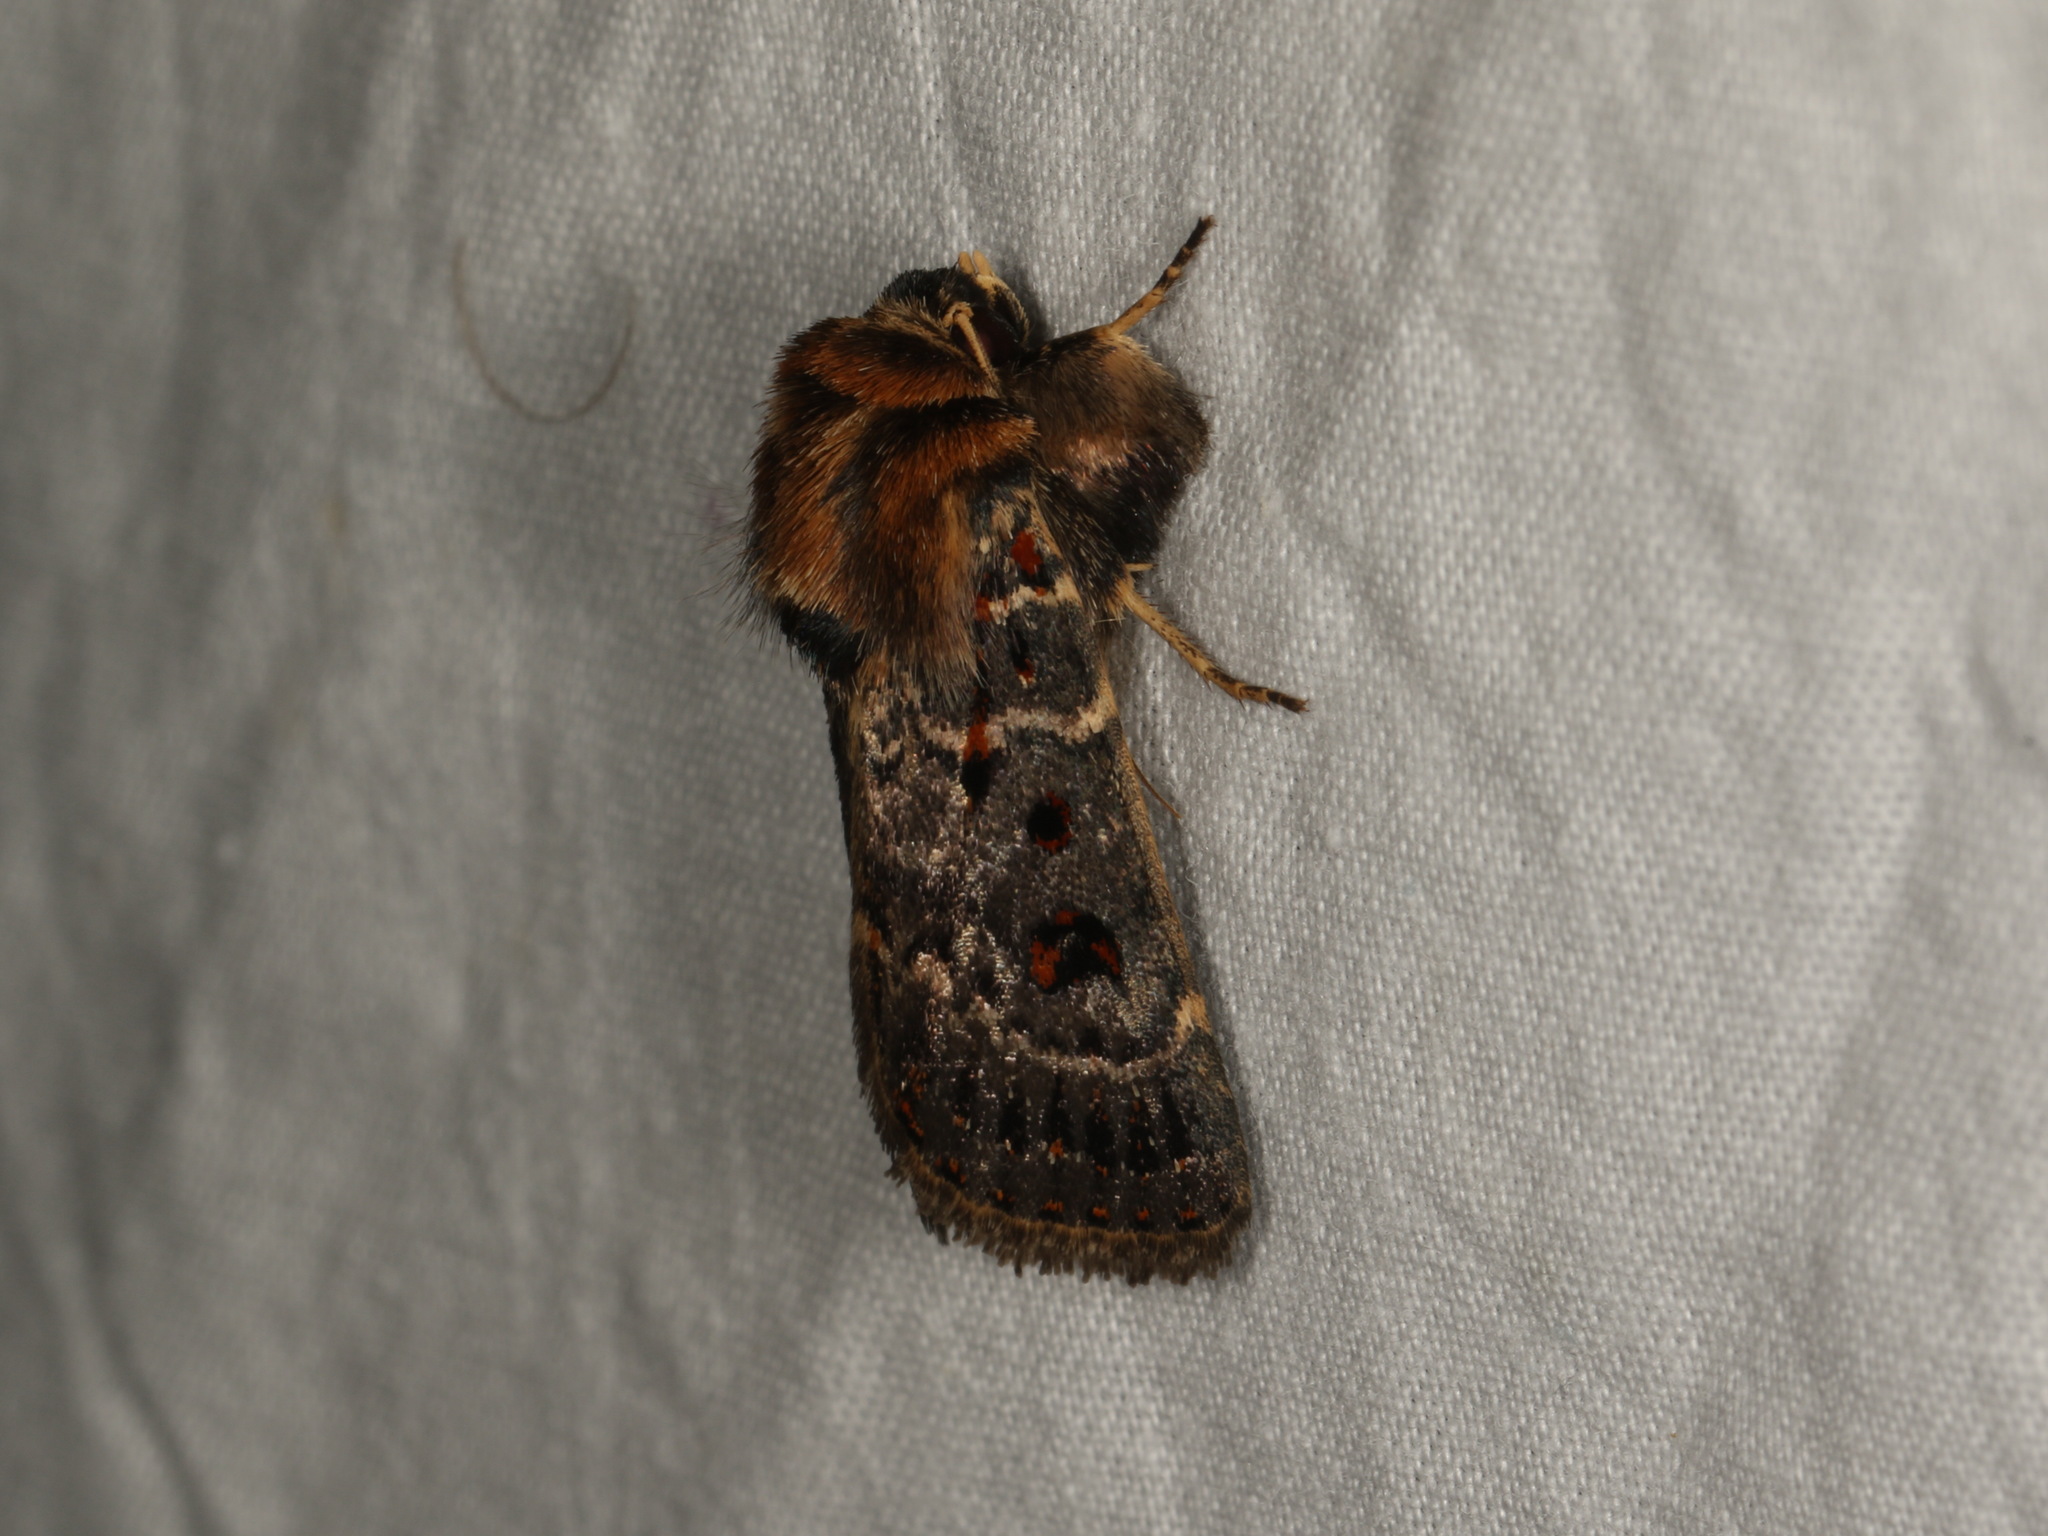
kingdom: Animalia
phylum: Arthropoda
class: Insecta
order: Lepidoptera
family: Noctuidae
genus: Proteuxoa
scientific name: Proteuxoa sanguinipuncta
